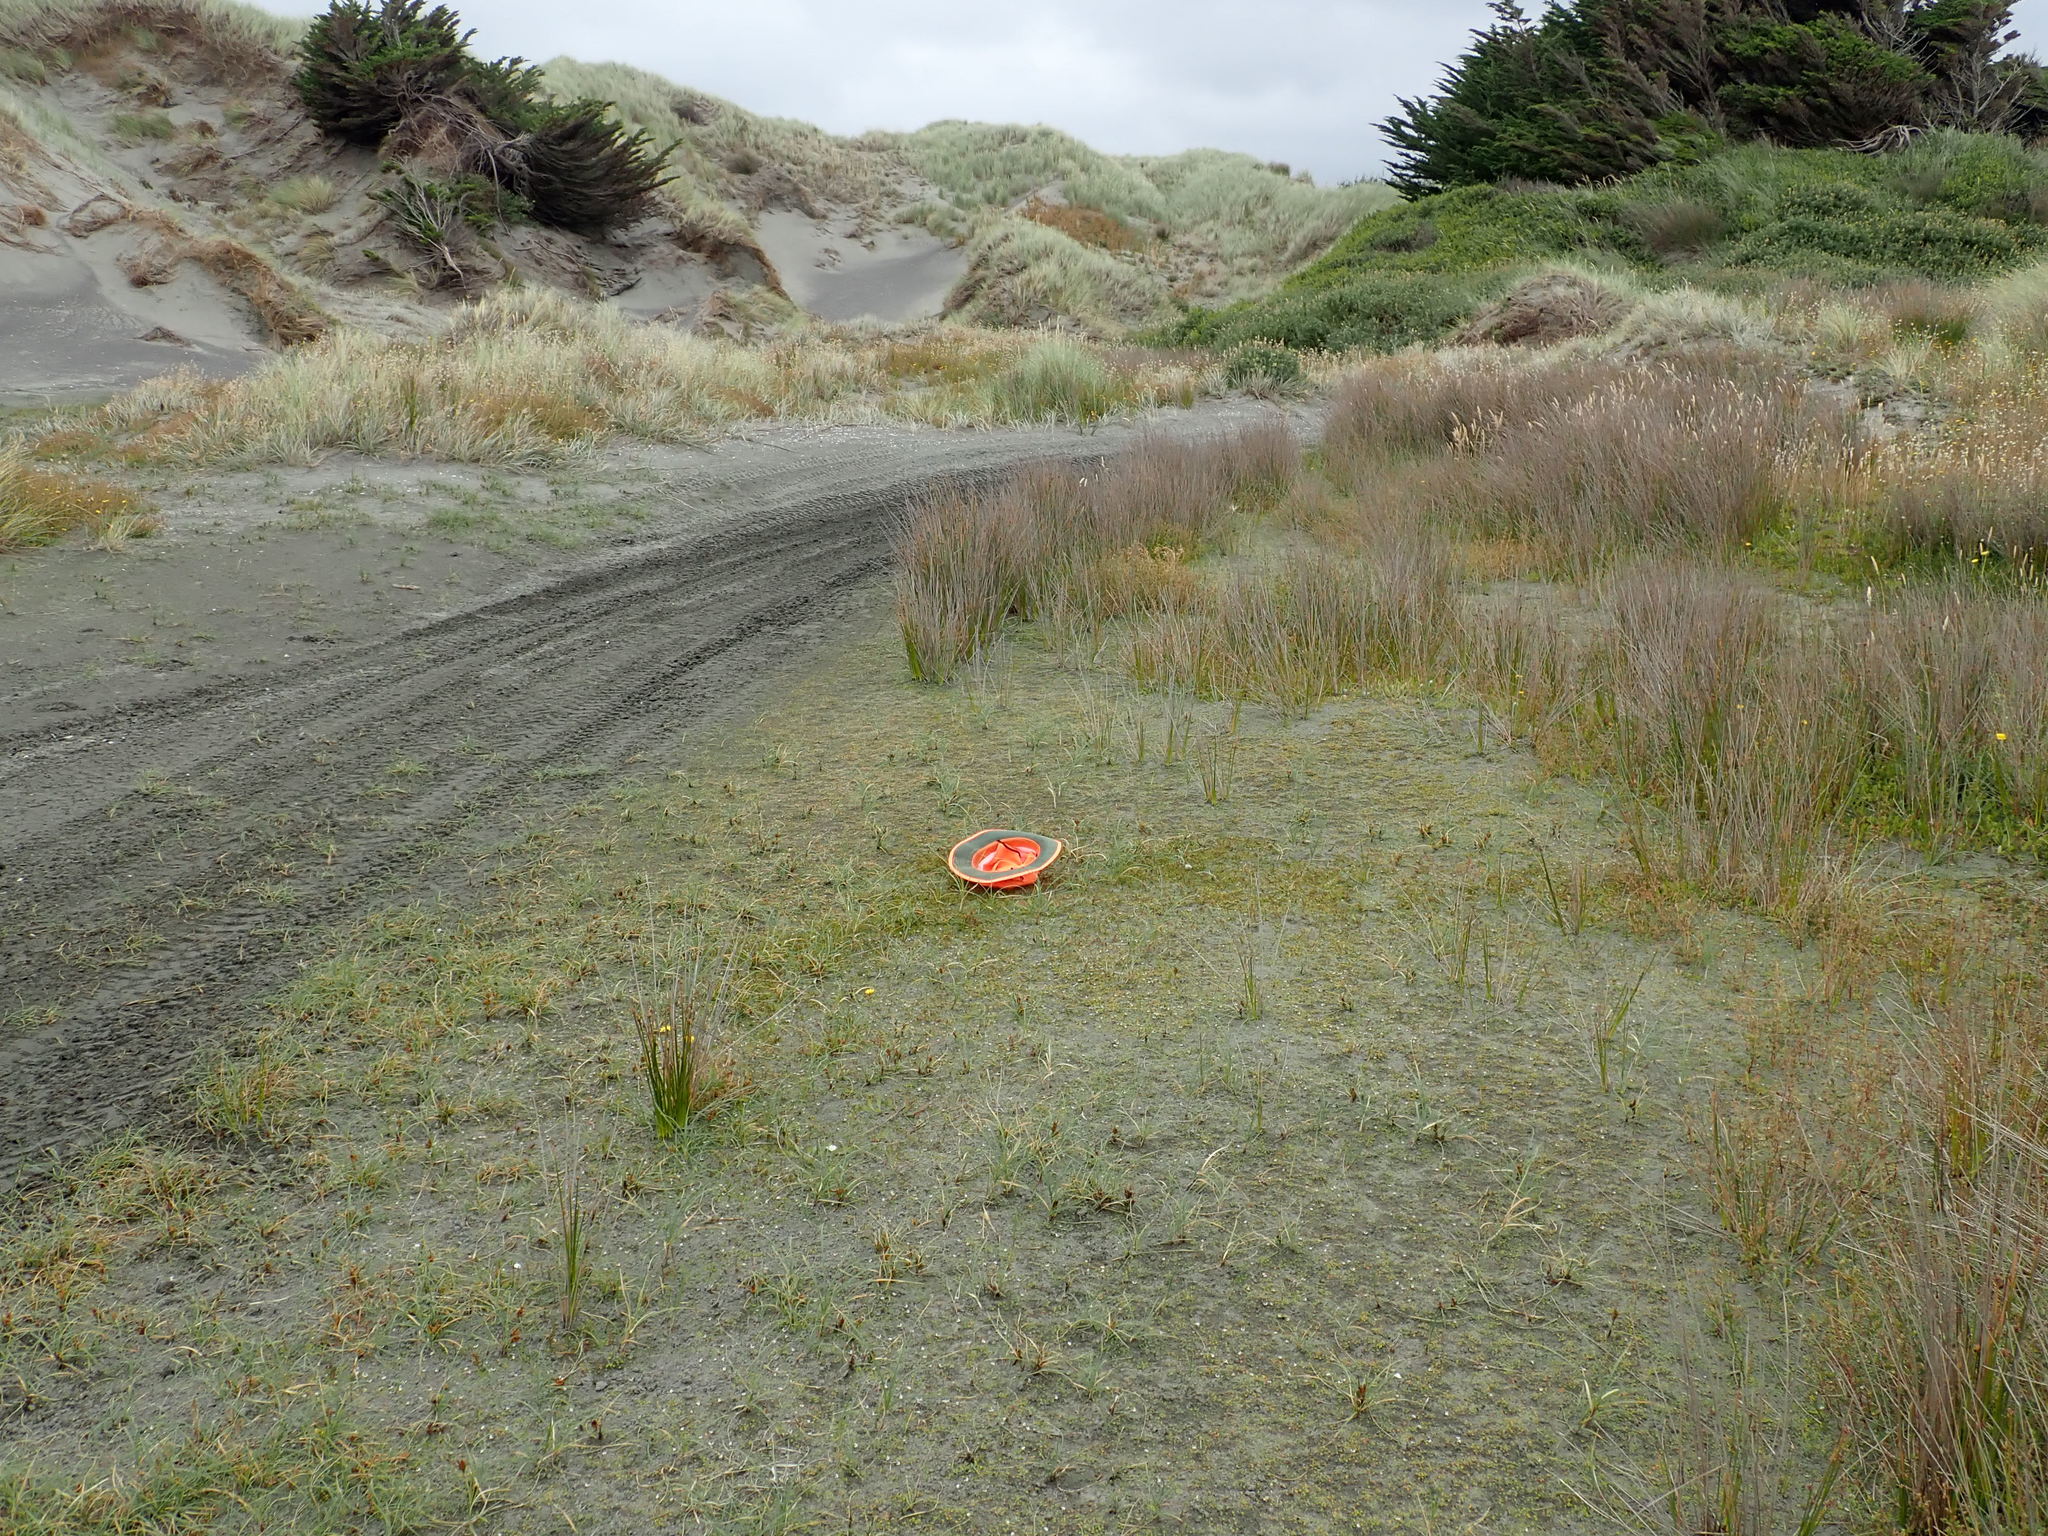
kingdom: Plantae
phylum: Tracheophyta
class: Liliopsida
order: Alismatales
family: Juncaginaceae
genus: Triglochin
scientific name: Triglochin striata
